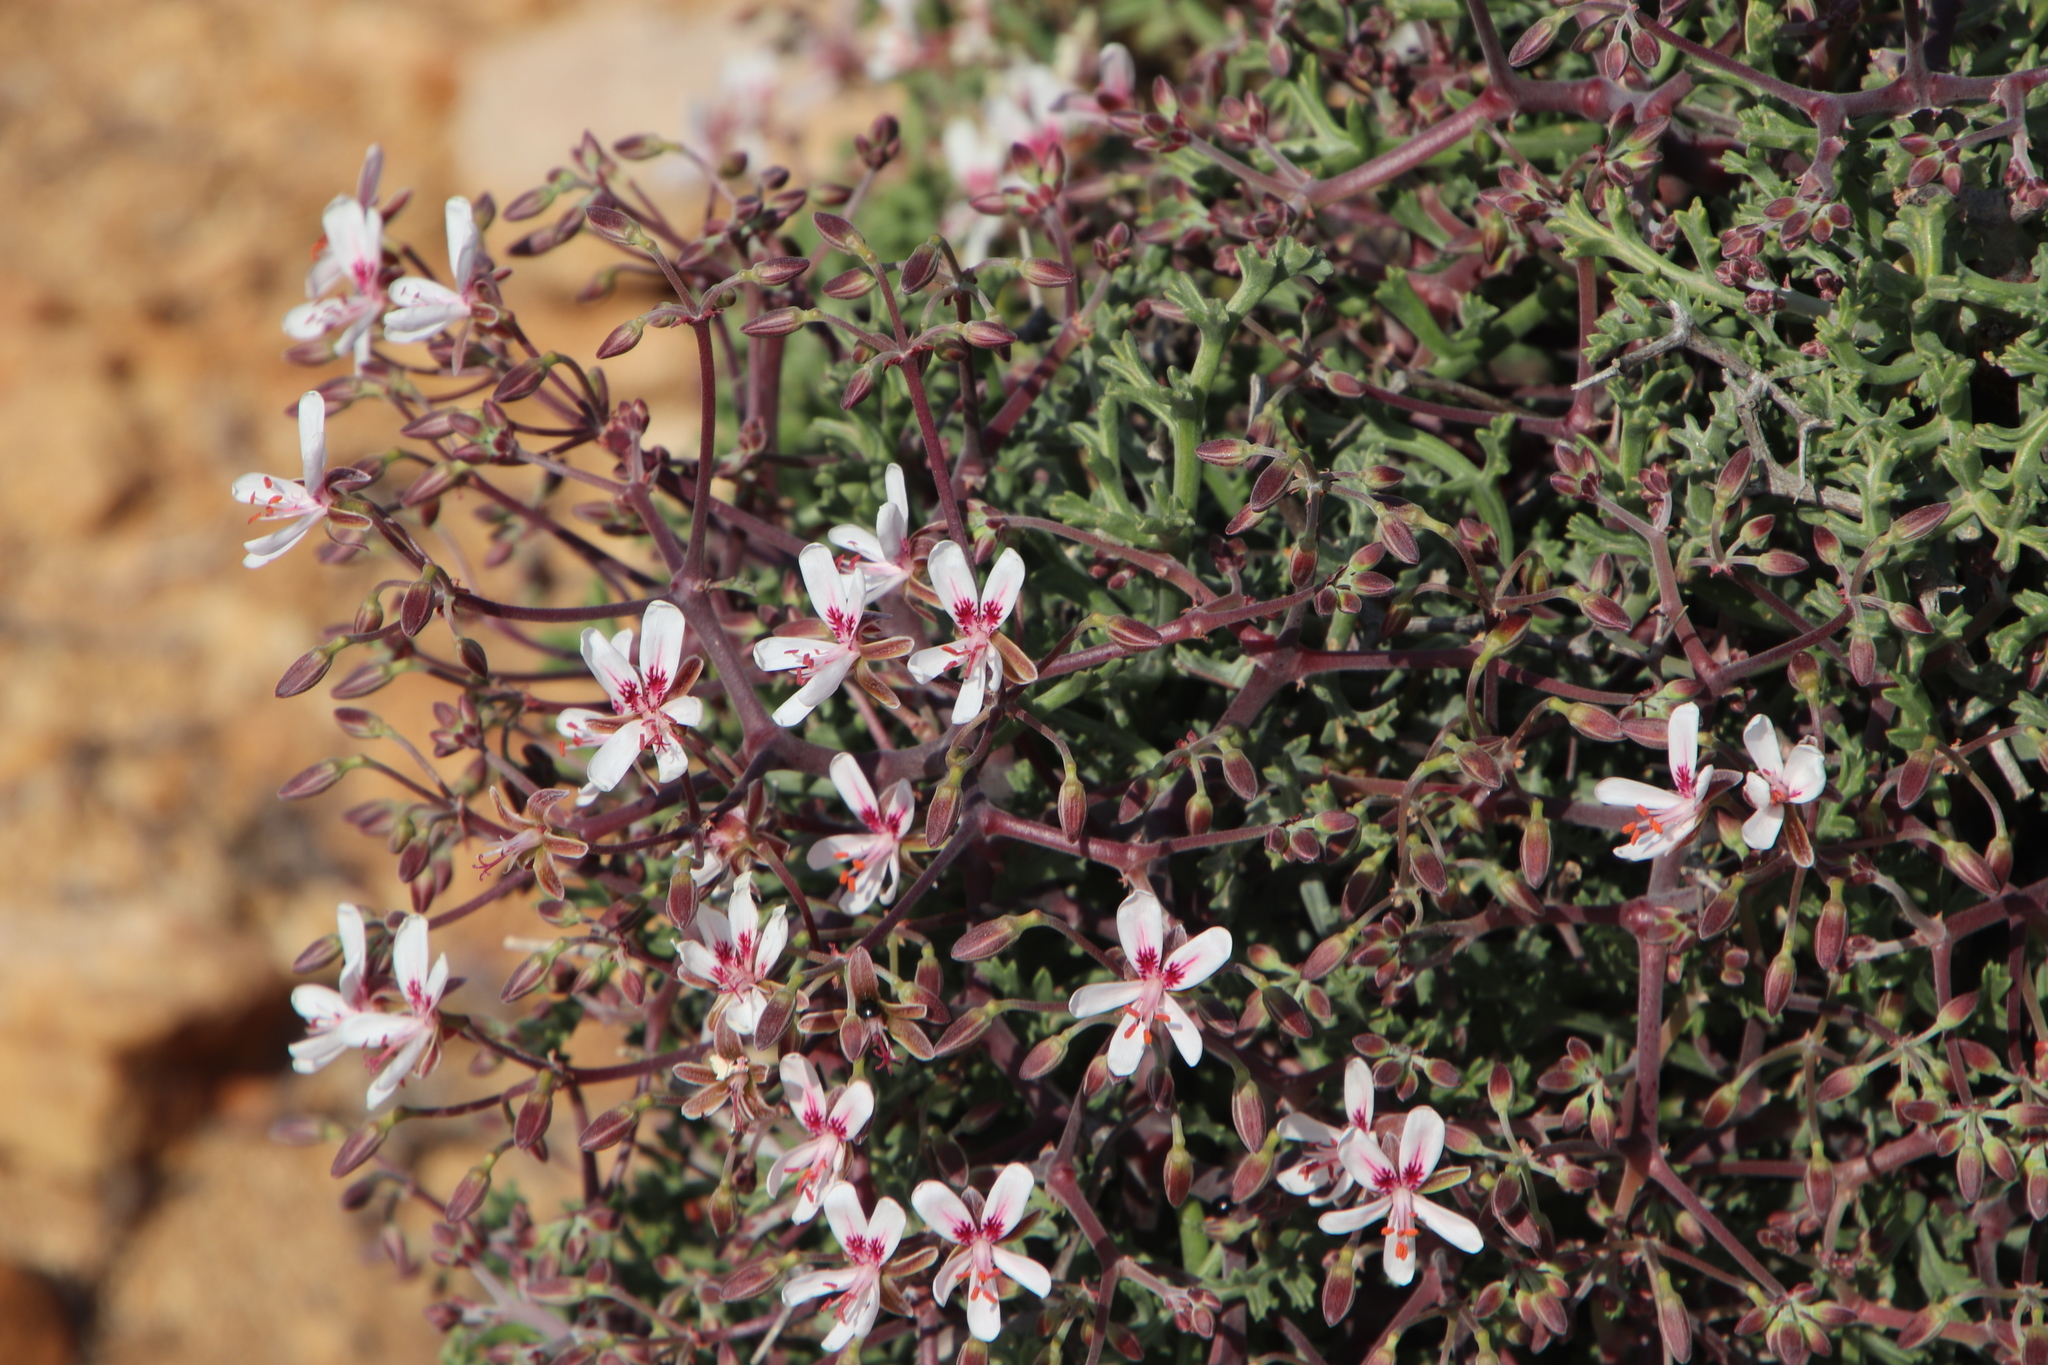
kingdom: Plantae
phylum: Tracheophyta
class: Magnoliopsida
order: Geraniales
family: Geraniaceae
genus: Pelargonium
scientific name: Pelargonium crithmifolium
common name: Samphire-leaf pelargonium
